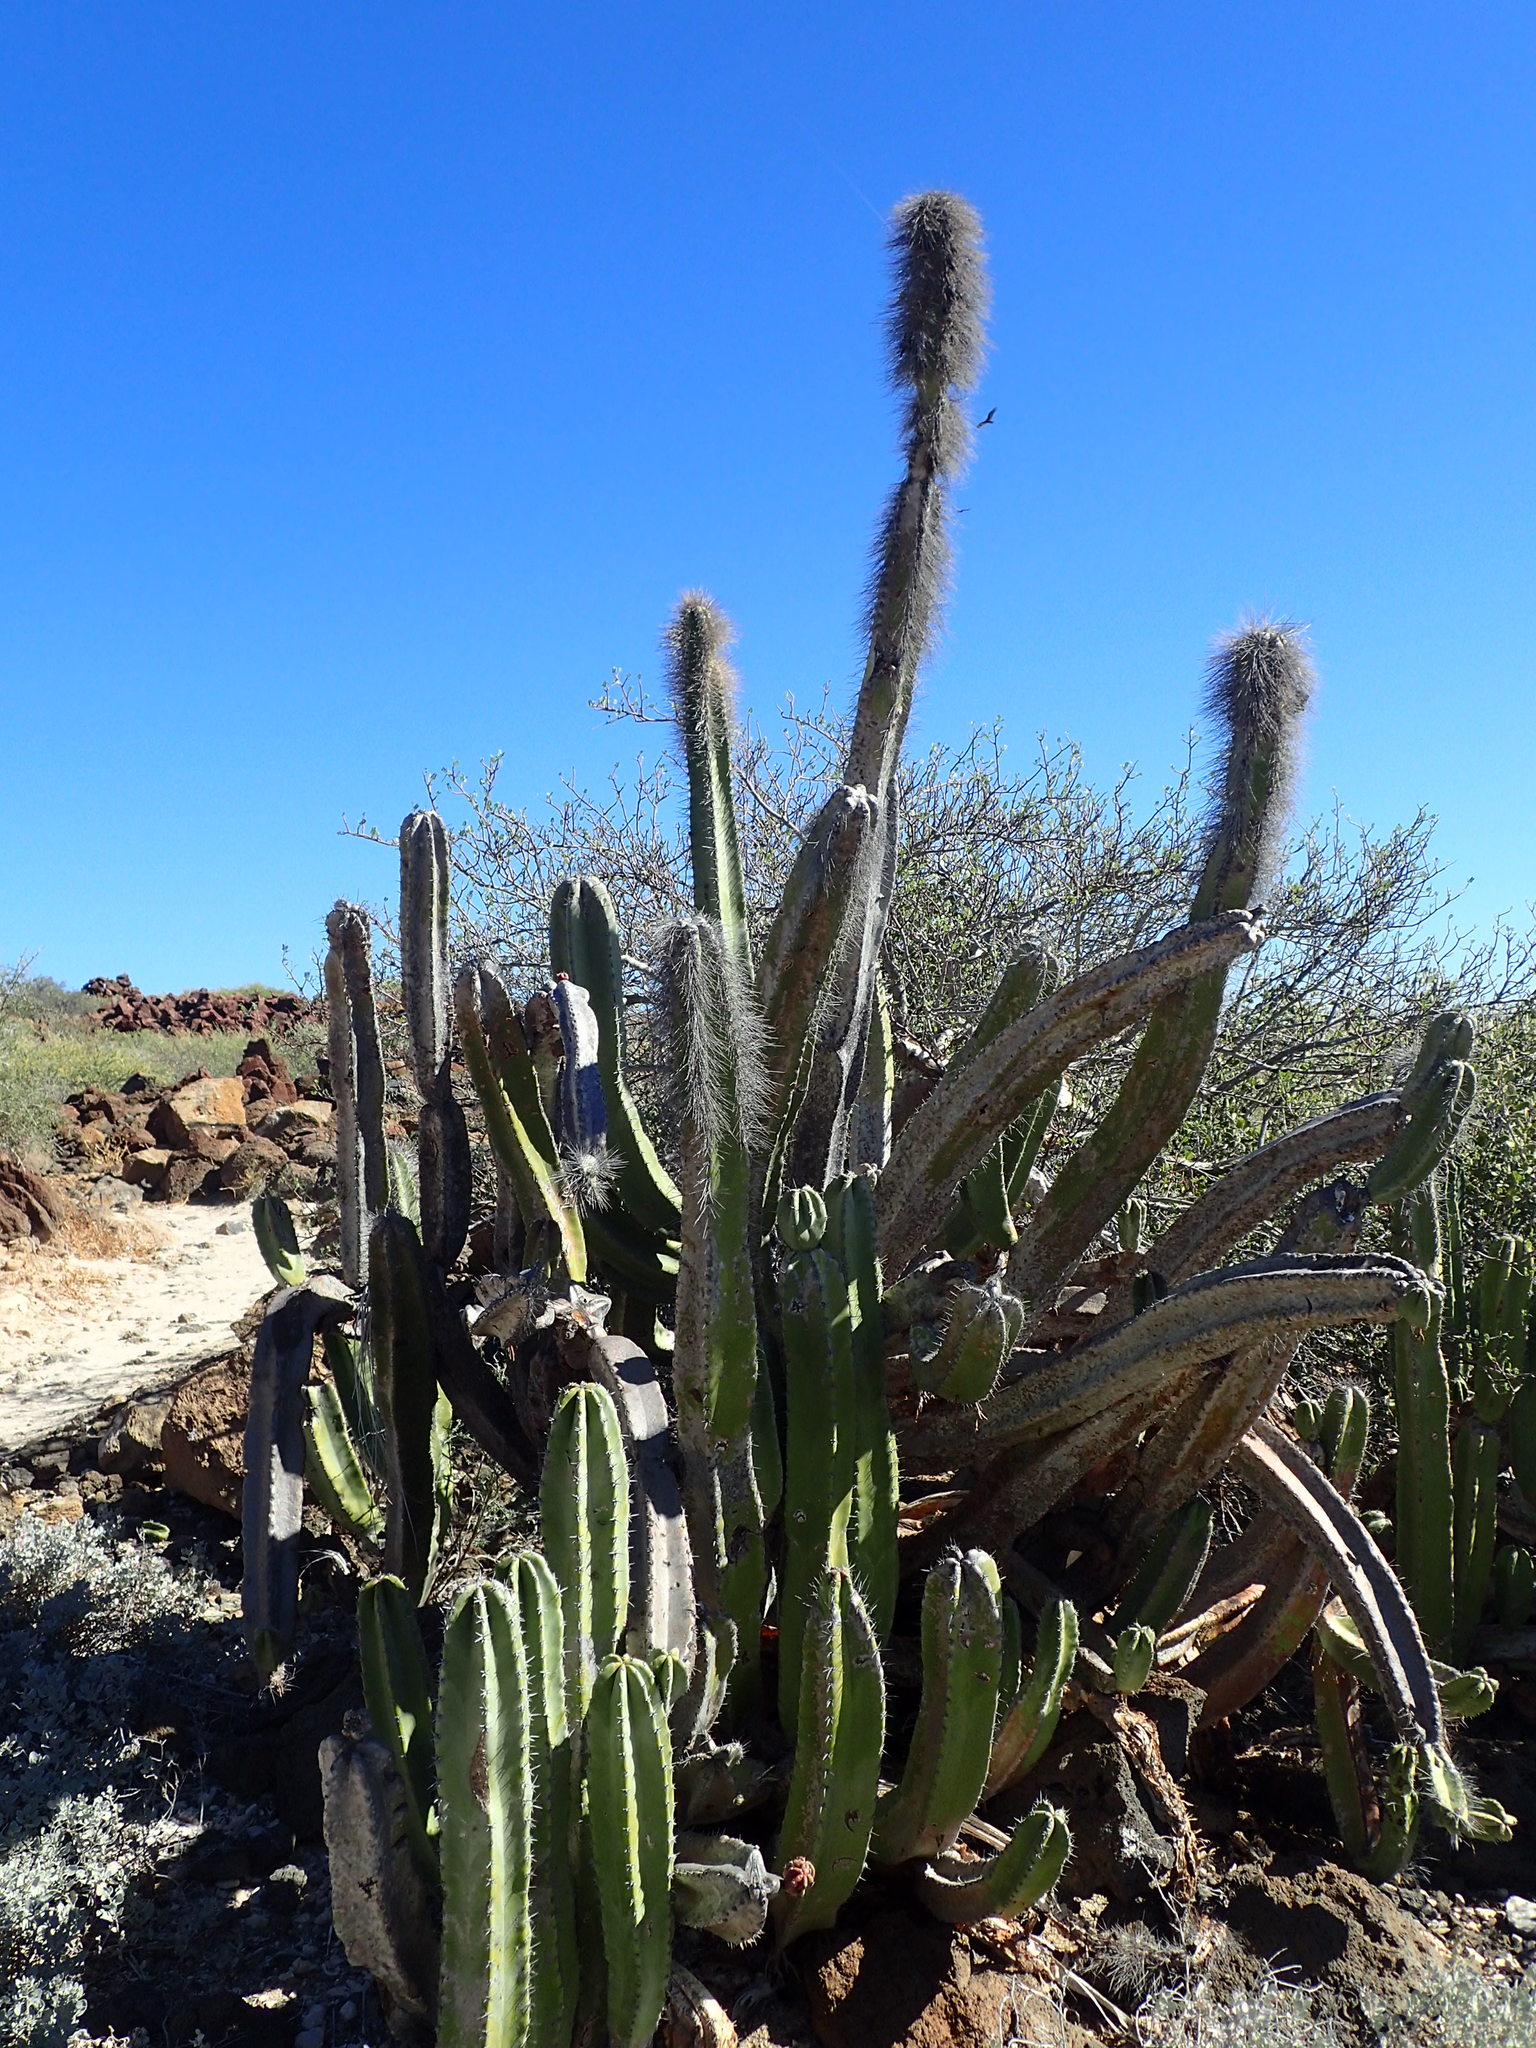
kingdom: Plantae
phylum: Tracheophyta
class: Magnoliopsida
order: Caryophyllales
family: Cactaceae
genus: Pachycereus
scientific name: Pachycereus schottii
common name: Senita cactus
